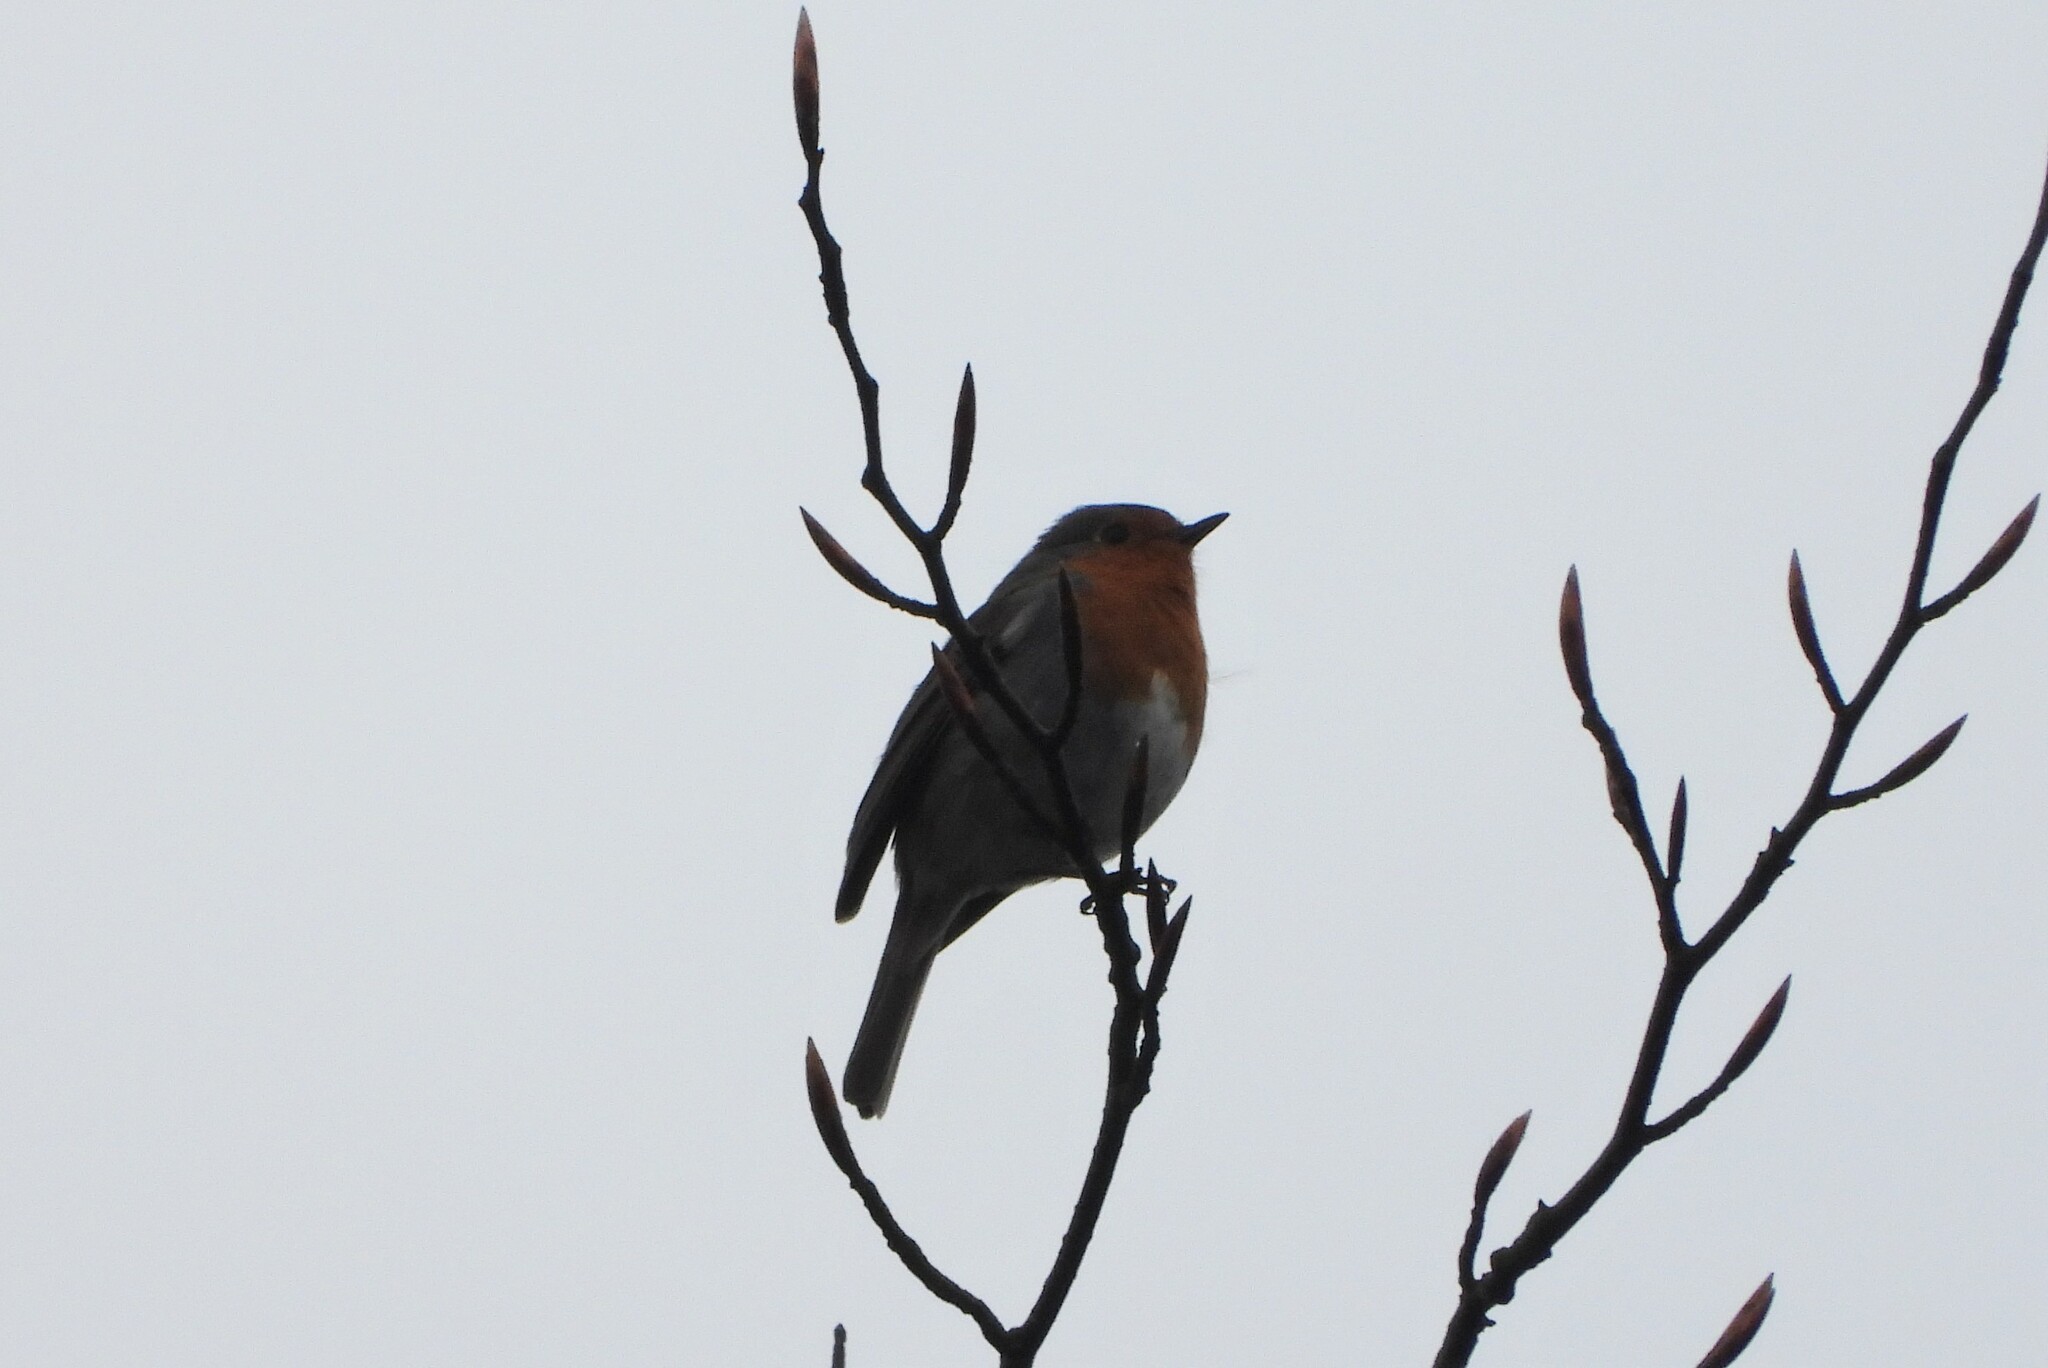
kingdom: Animalia
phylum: Chordata
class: Aves
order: Passeriformes
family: Muscicapidae
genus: Erithacus
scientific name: Erithacus rubecula
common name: European robin
